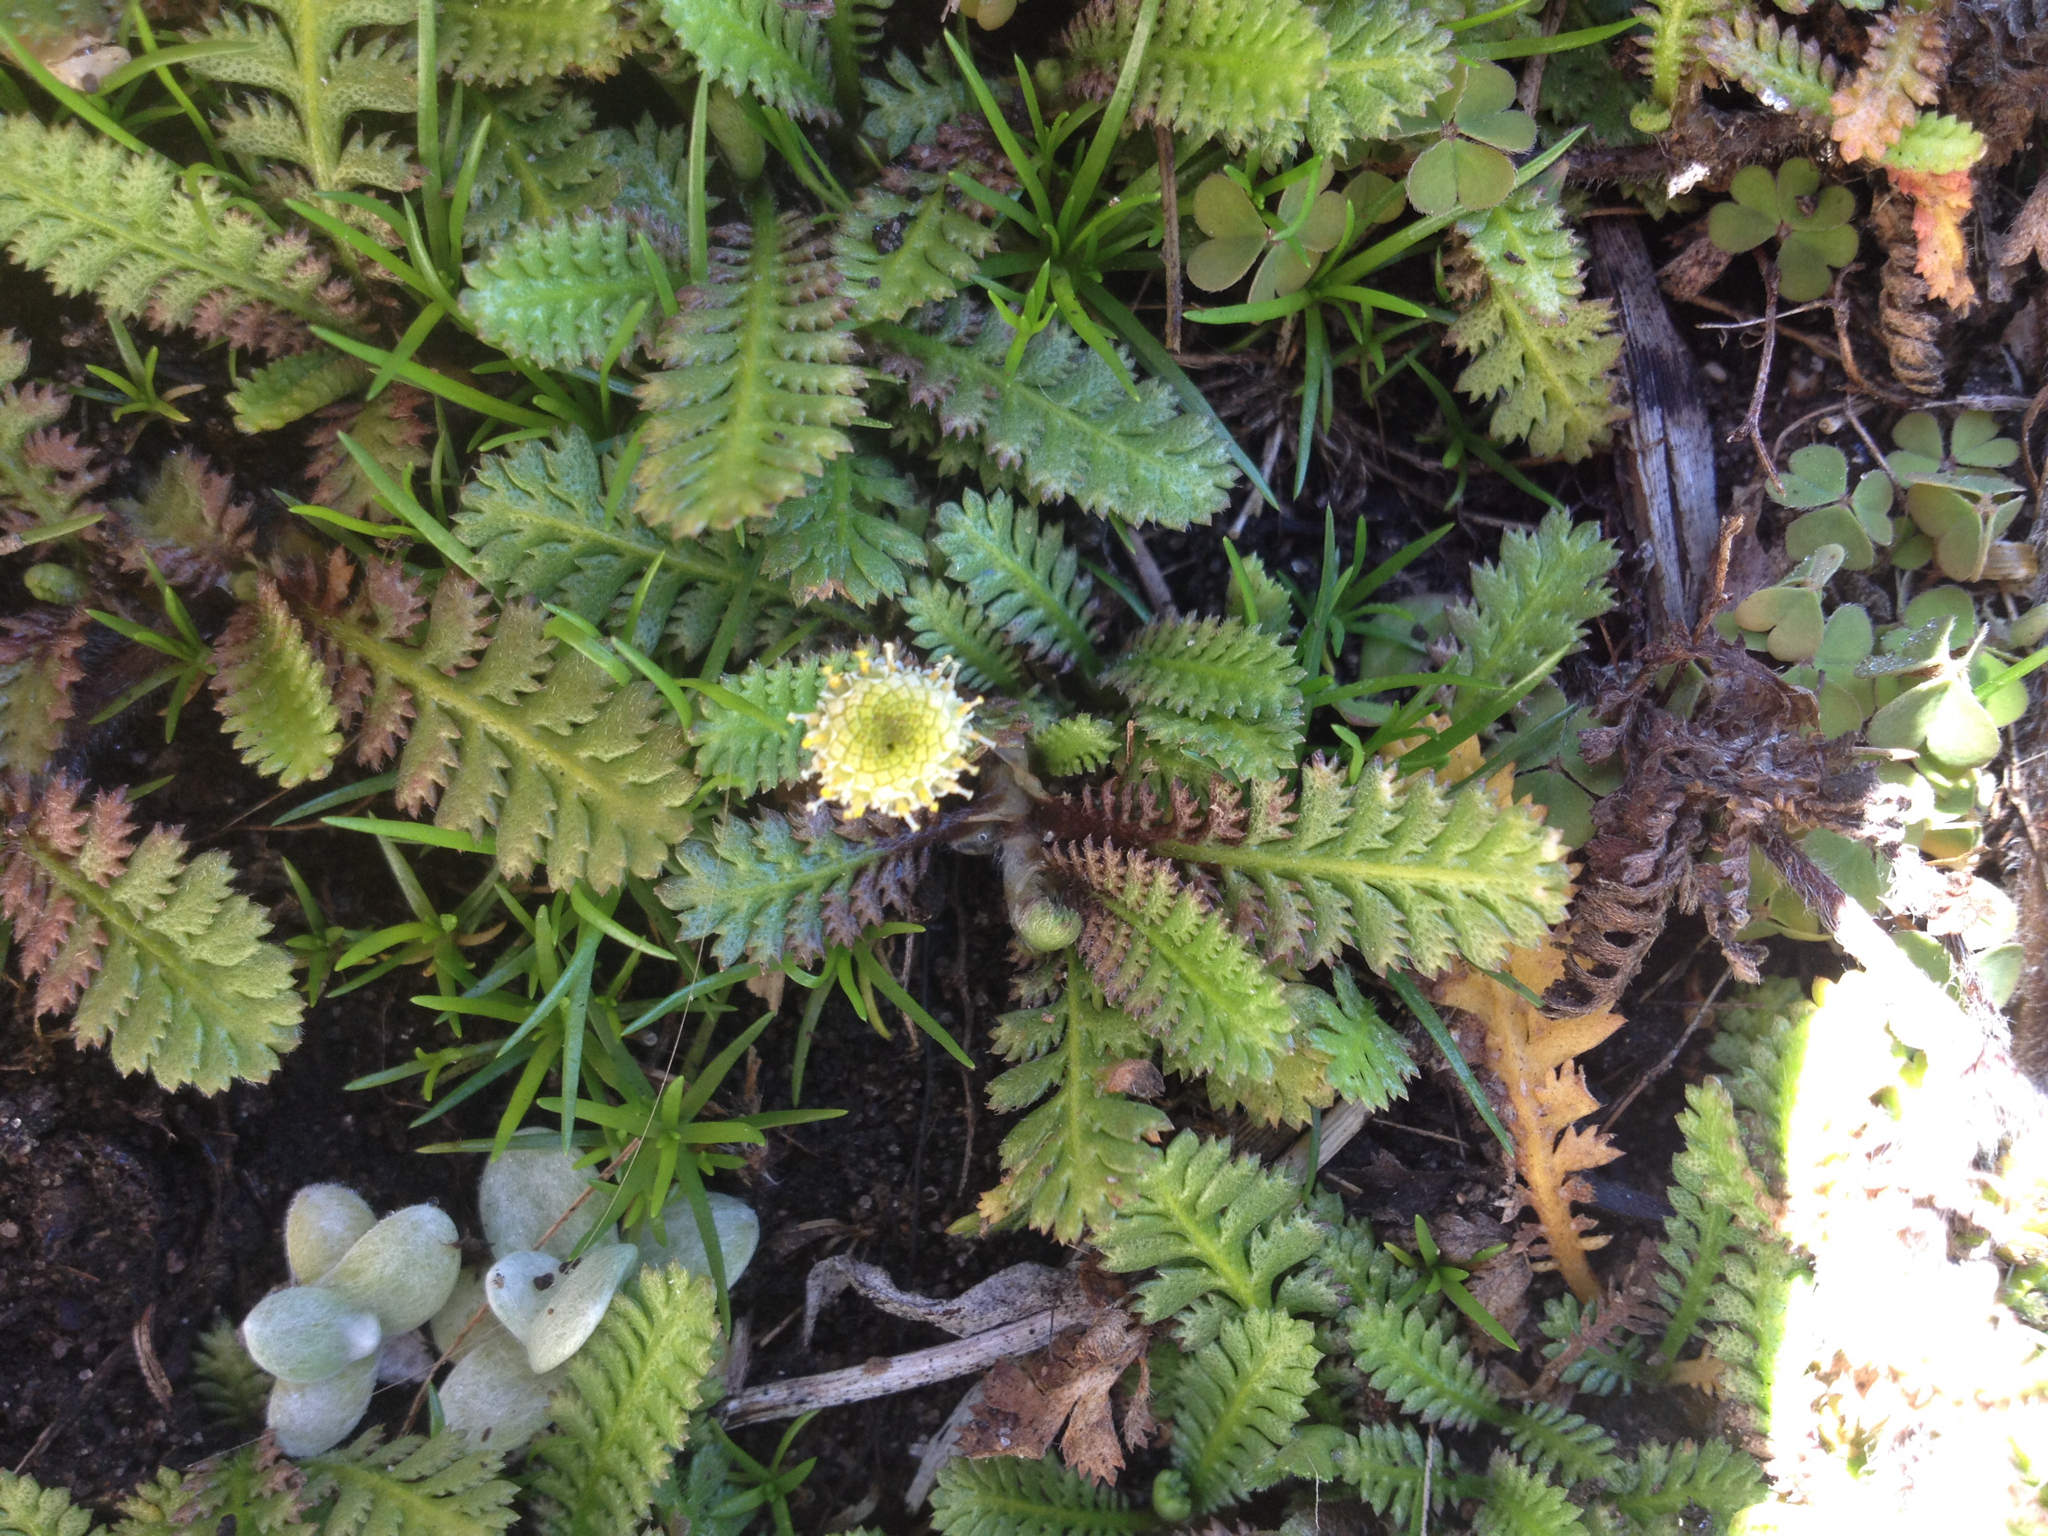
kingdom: Plantae
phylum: Tracheophyta
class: Magnoliopsida
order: Asterales
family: Asteraceae
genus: Leptinella
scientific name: Leptinella dioica
